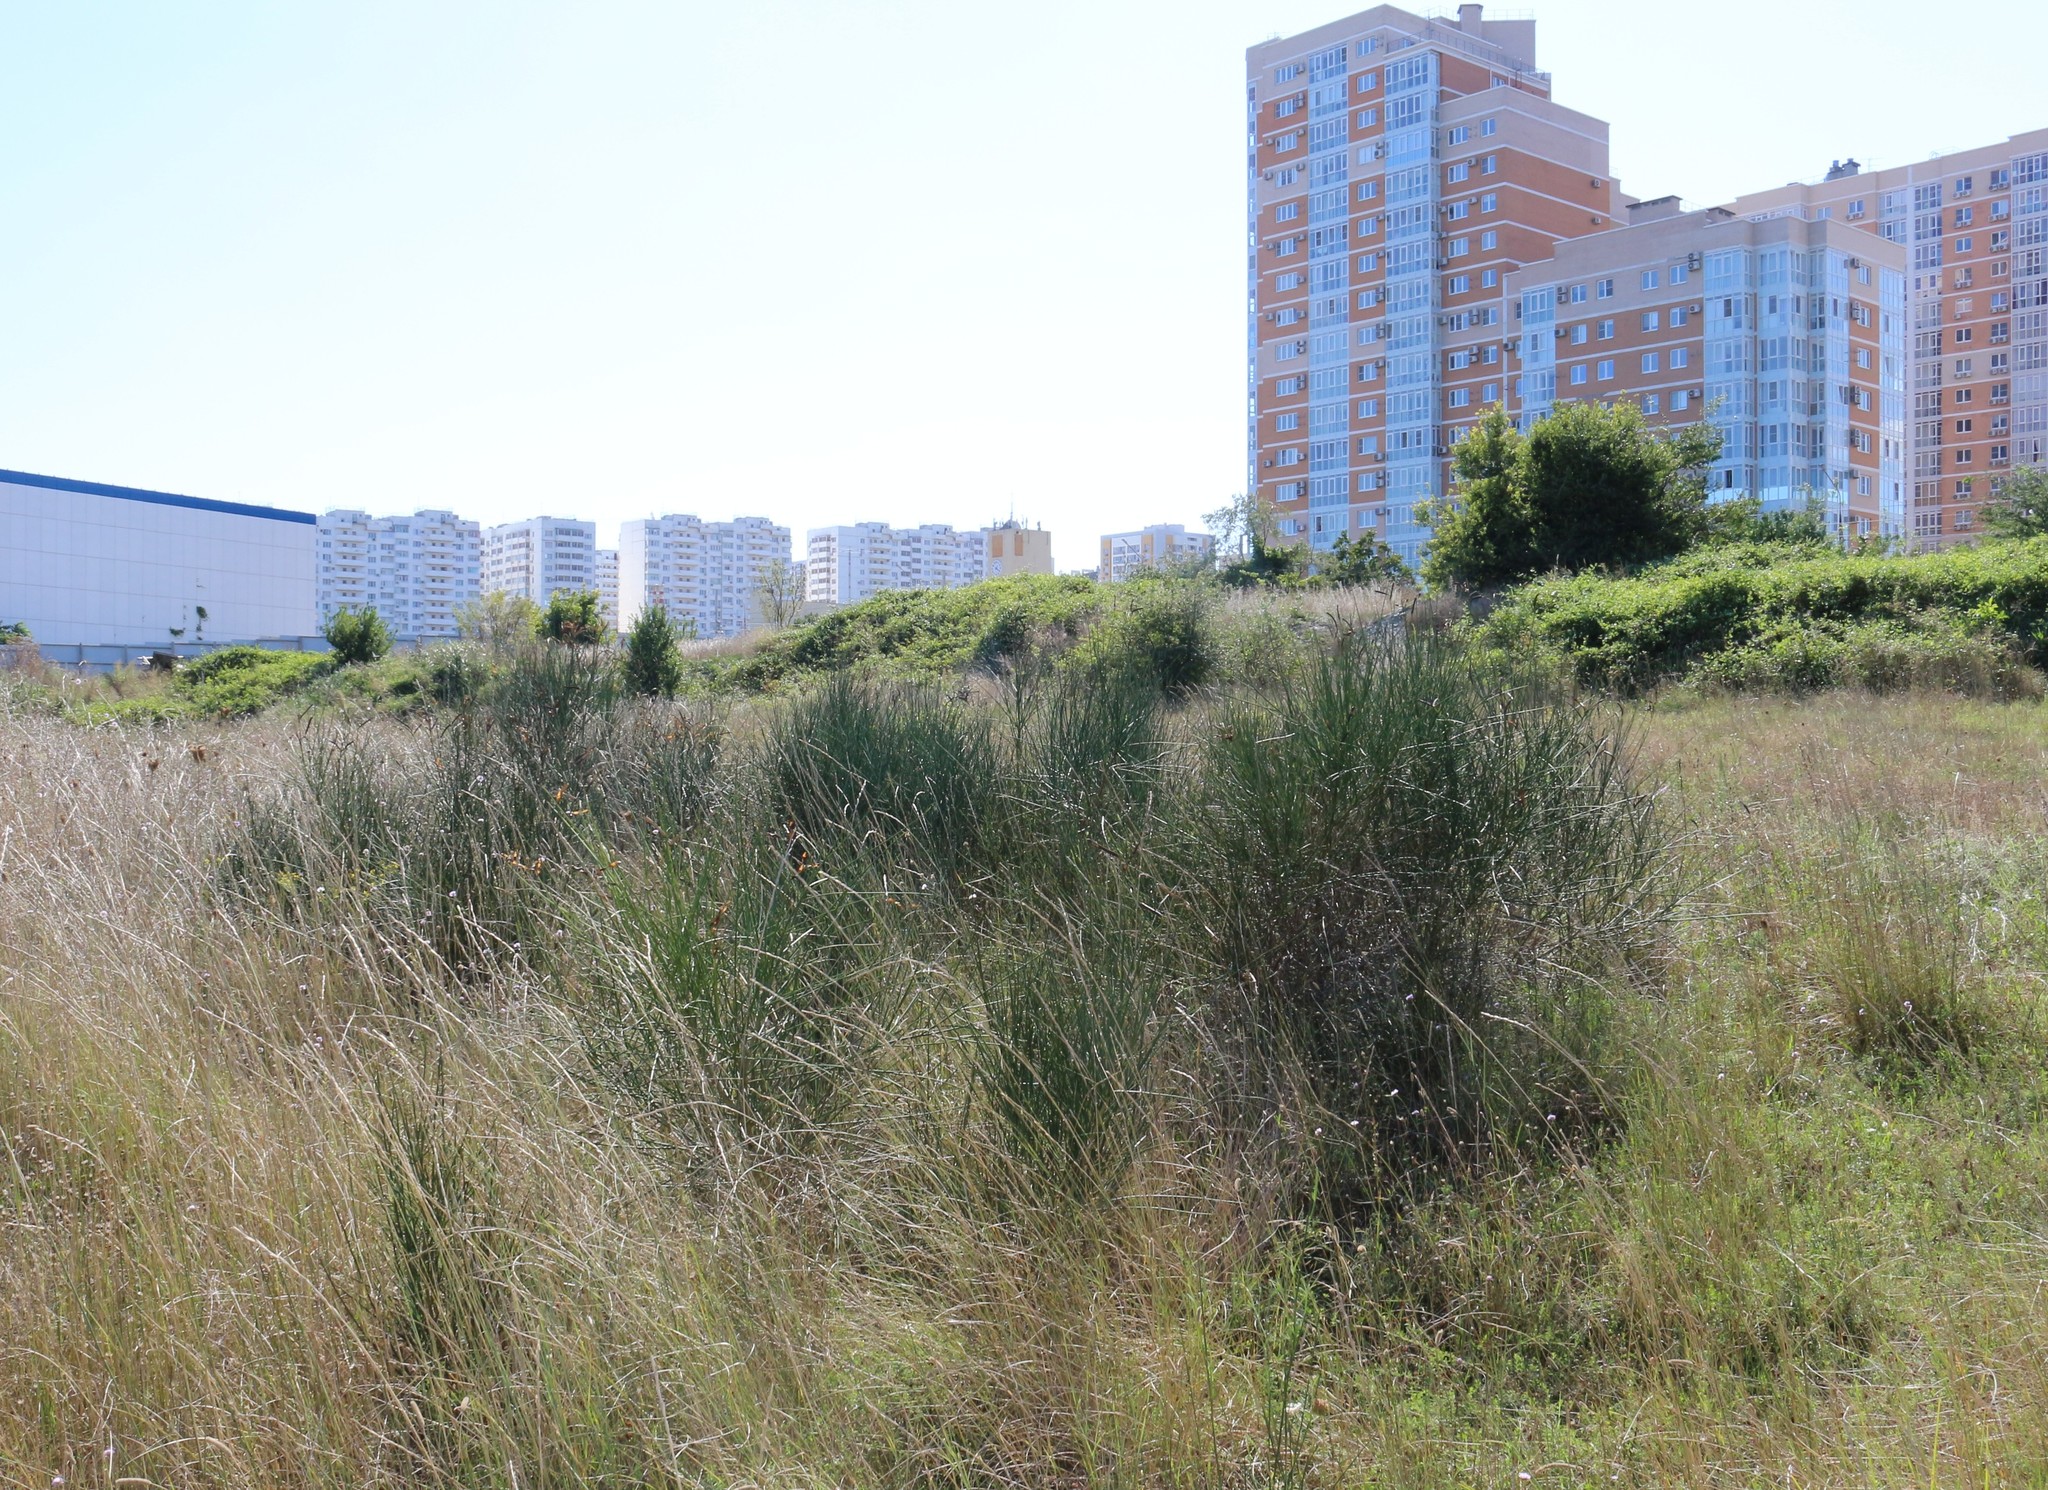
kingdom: Plantae
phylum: Tracheophyta
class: Magnoliopsida
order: Fabales
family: Fabaceae
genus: Spartium
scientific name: Spartium junceum
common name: Spanish broom
